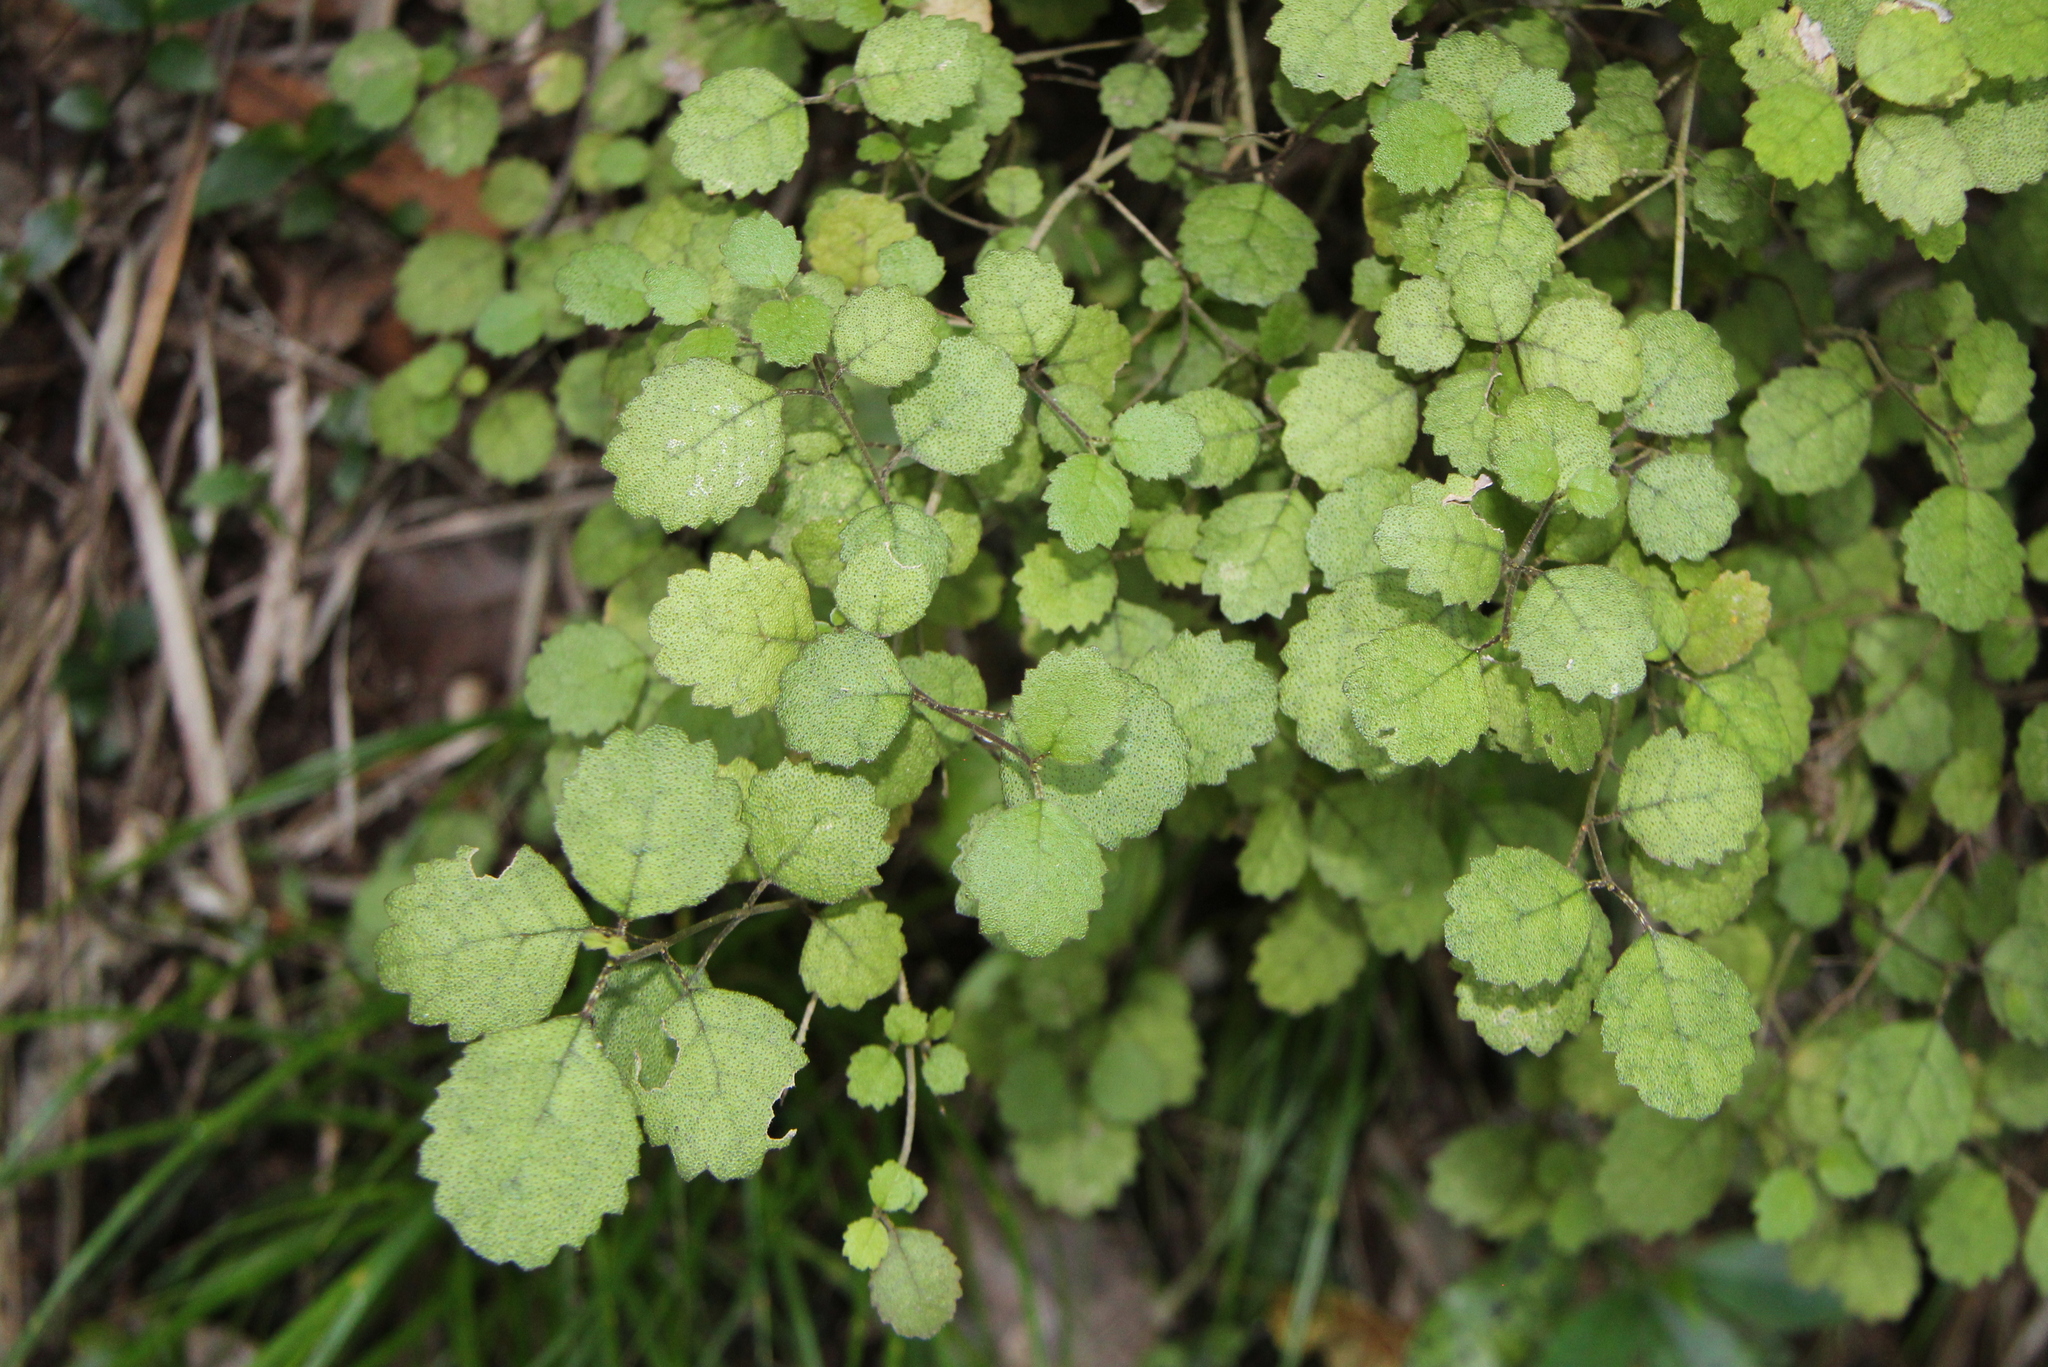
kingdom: Plantae
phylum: Tracheophyta
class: Magnoliopsida
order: Lamiales
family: Gesneriaceae
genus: Rhabdothamnus
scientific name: Rhabdothamnus solandri
